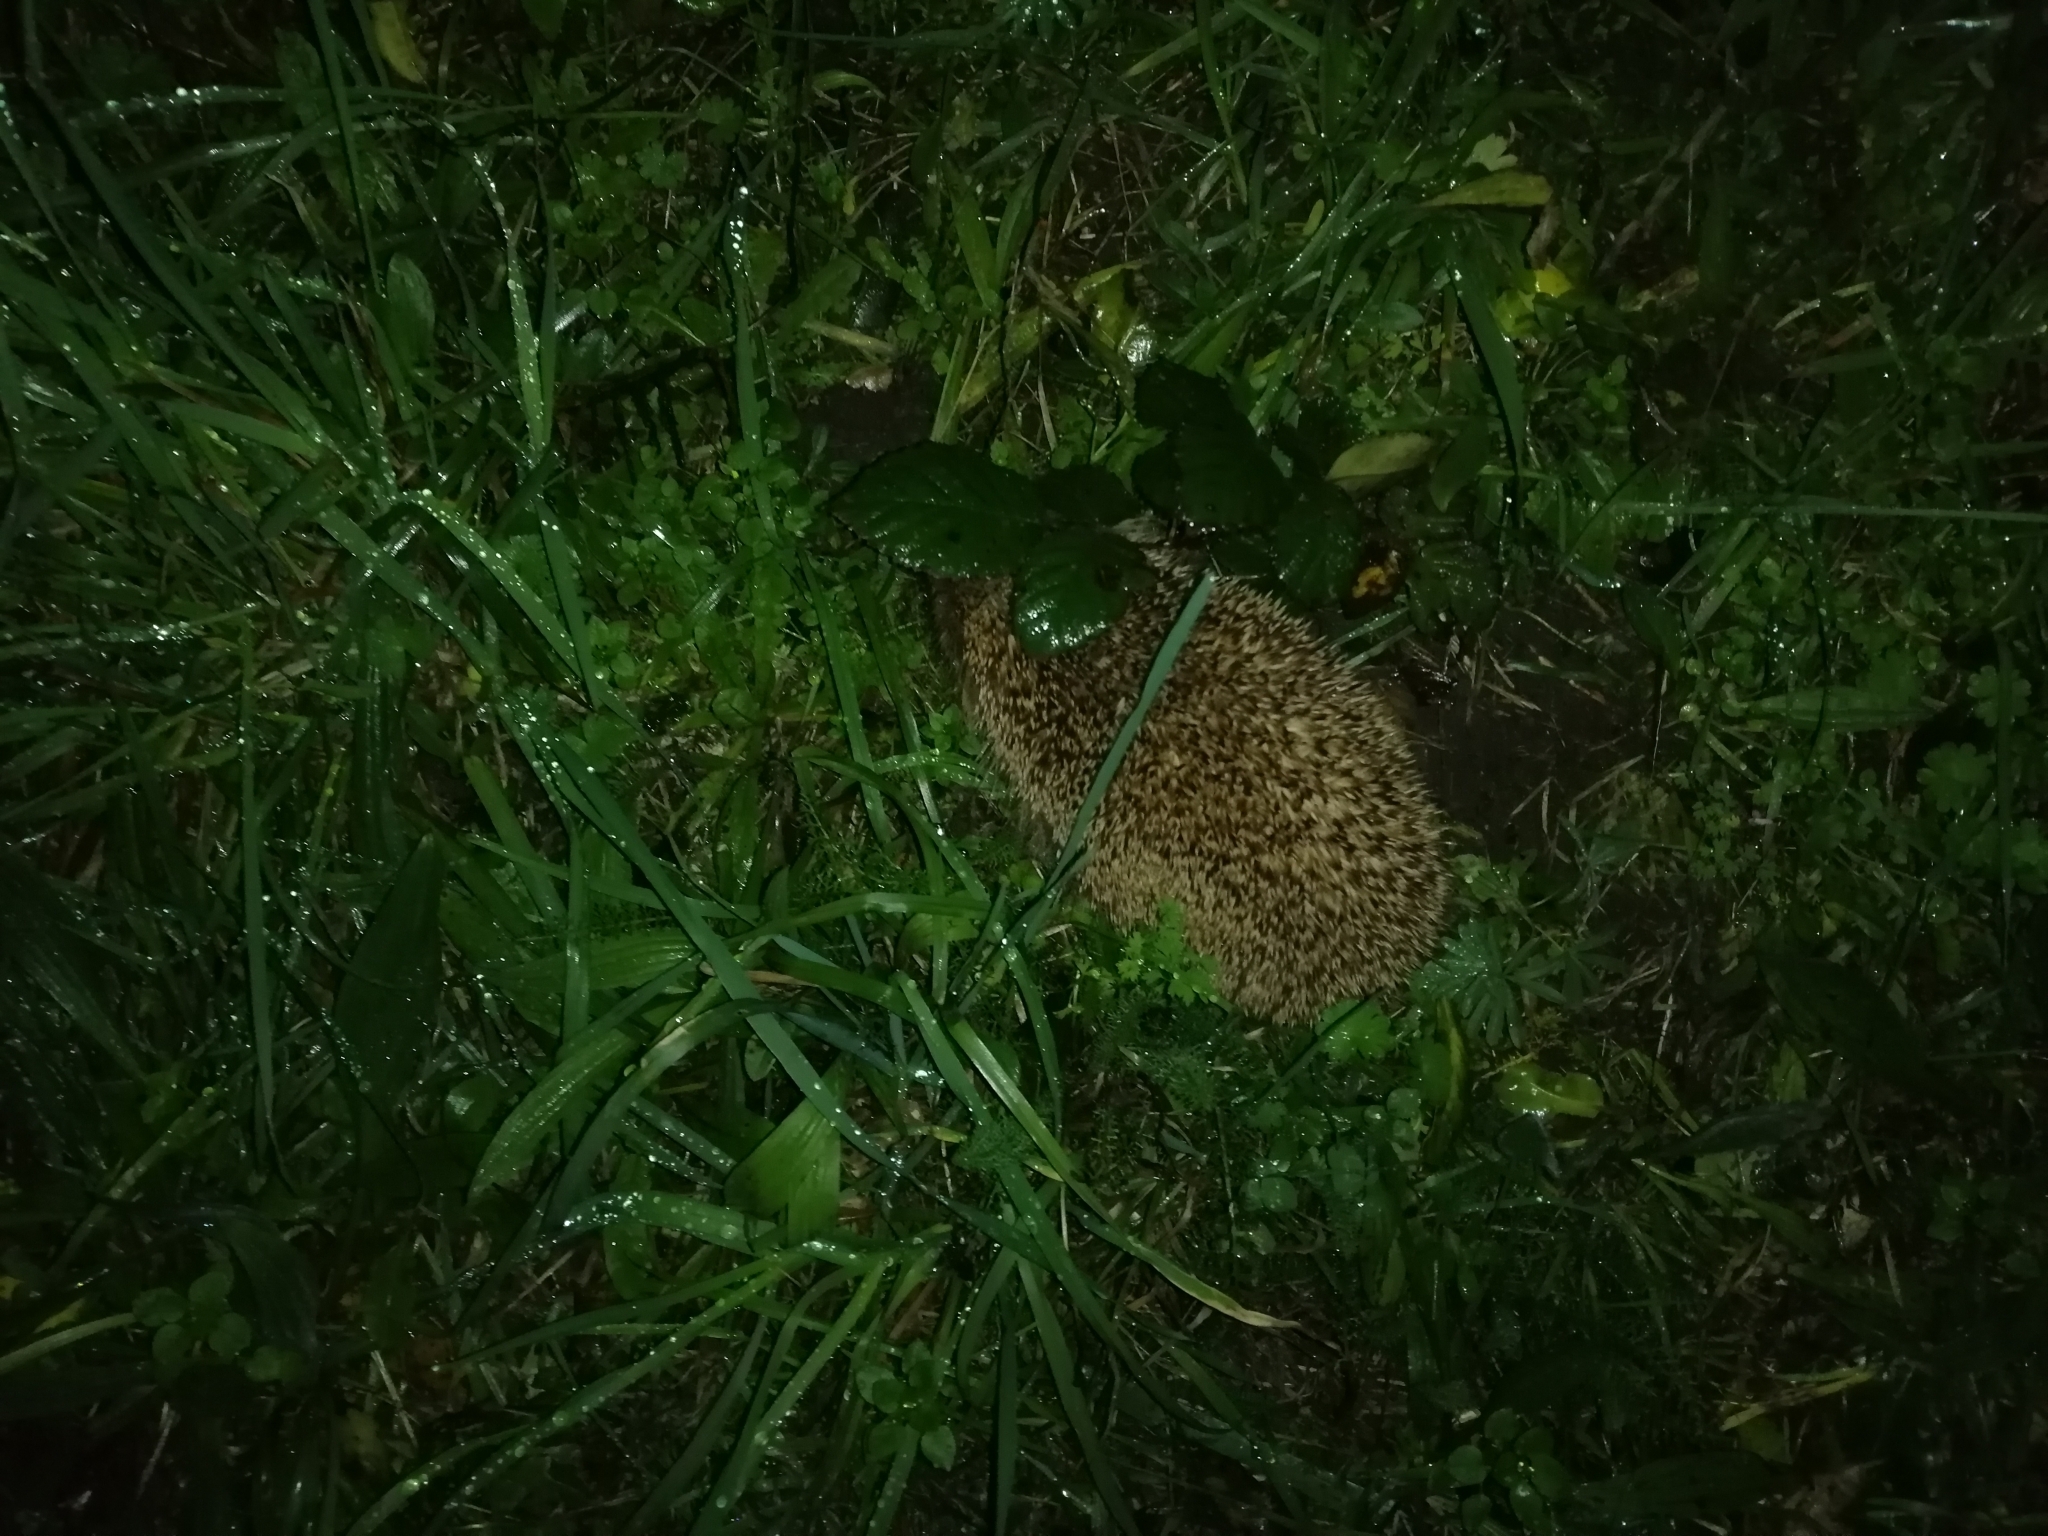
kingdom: Animalia
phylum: Chordata
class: Mammalia
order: Erinaceomorpha
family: Erinaceidae
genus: Erinaceus
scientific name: Erinaceus europaeus
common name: West european hedgehog
